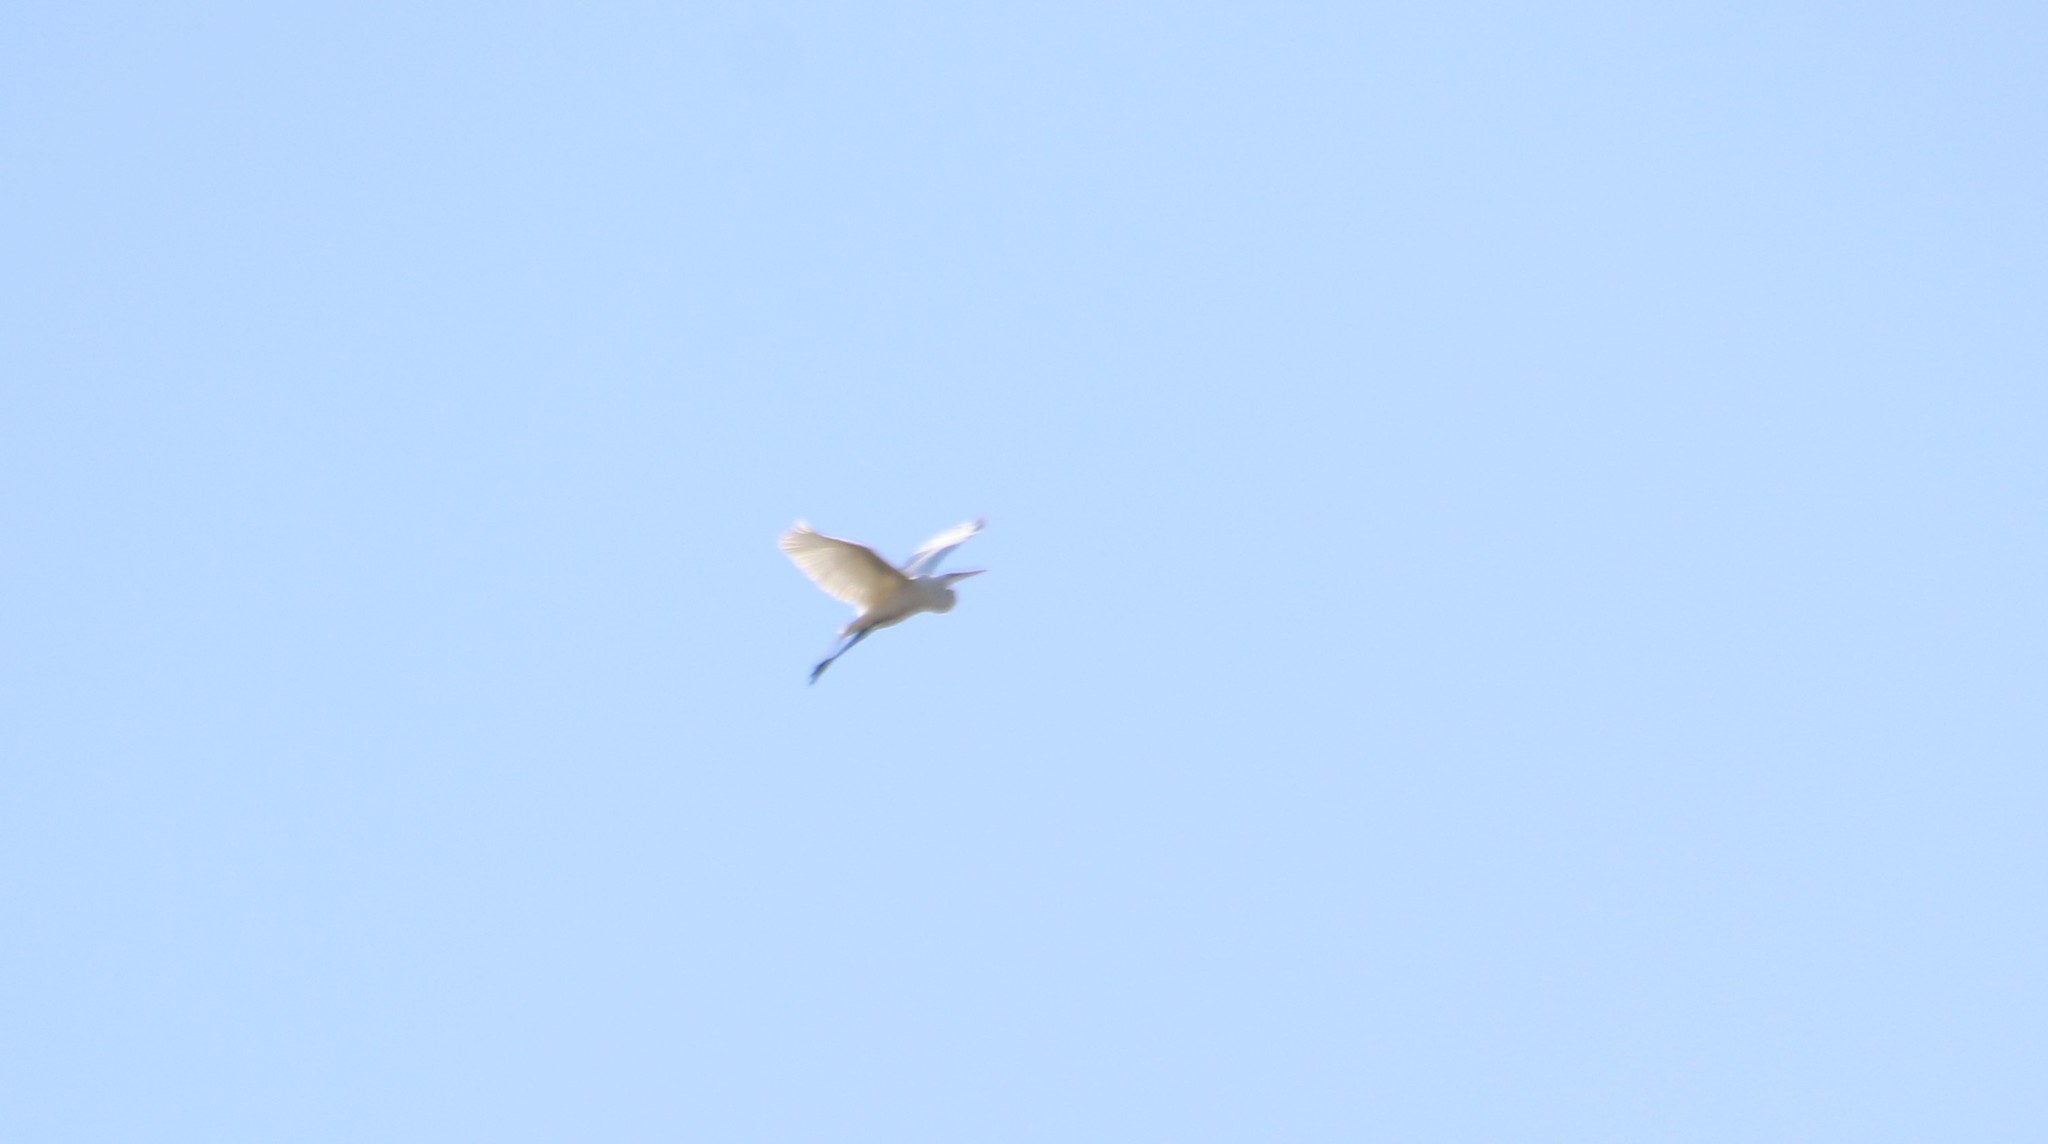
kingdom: Animalia
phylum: Chordata
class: Aves
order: Pelecaniformes
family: Ardeidae
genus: Ardea
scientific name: Ardea alba
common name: Great egret
